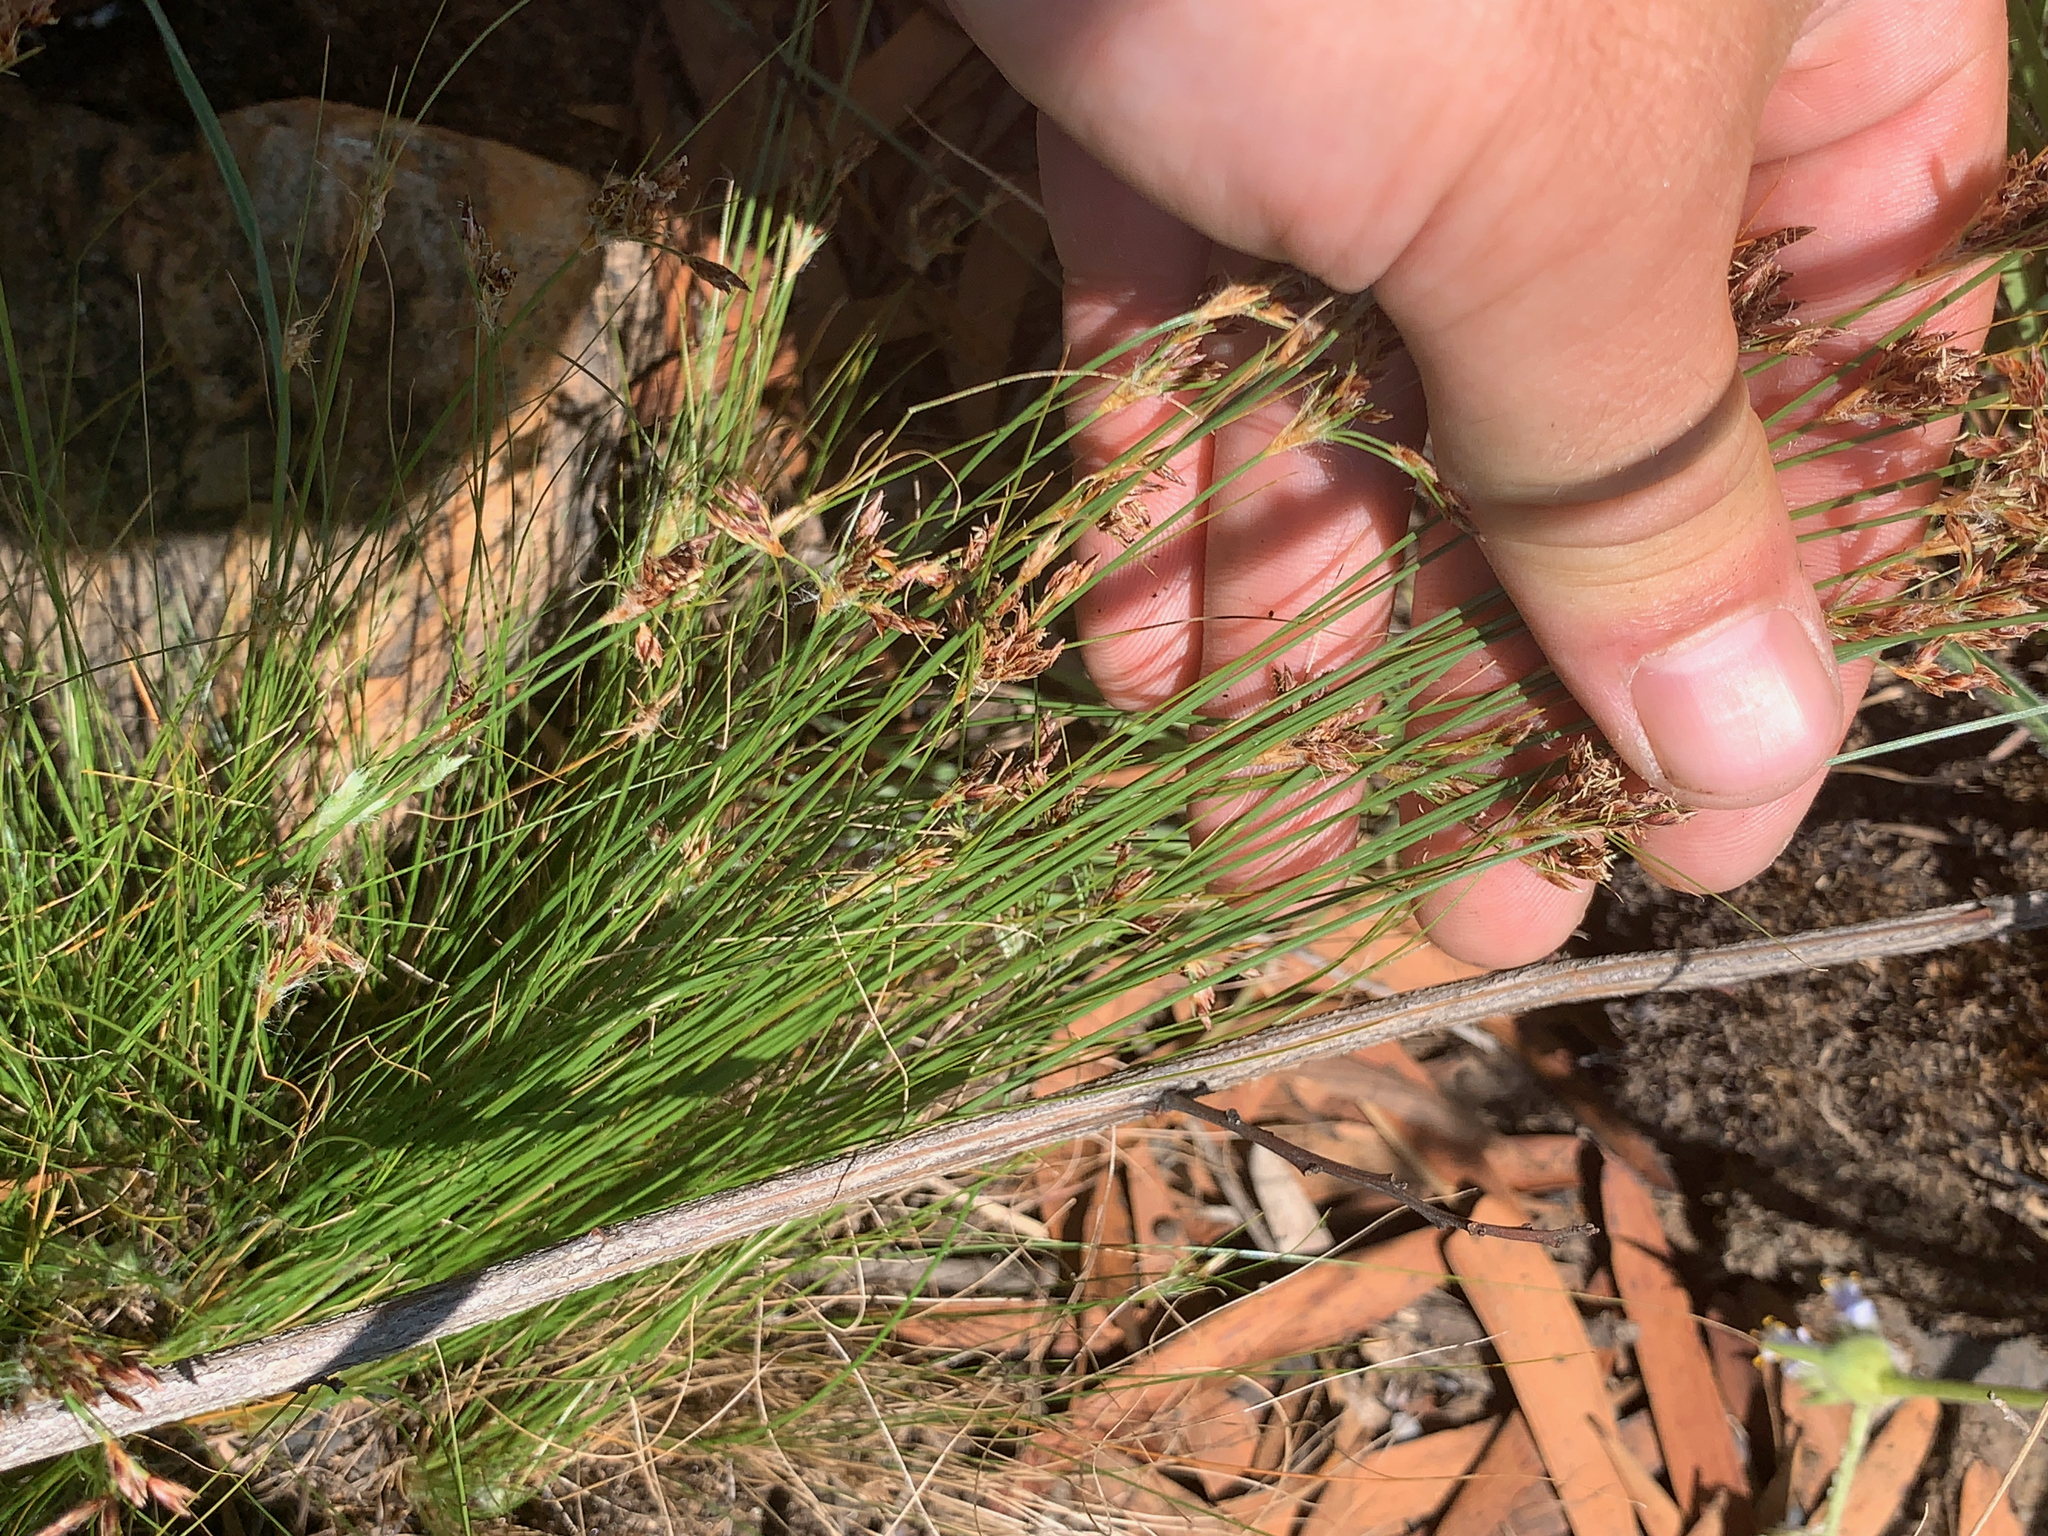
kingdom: Plantae
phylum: Tracheophyta
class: Liliopsida
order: Poales
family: Cyperaceae
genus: Bulbostylis
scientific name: Bulbostylis burchellii
